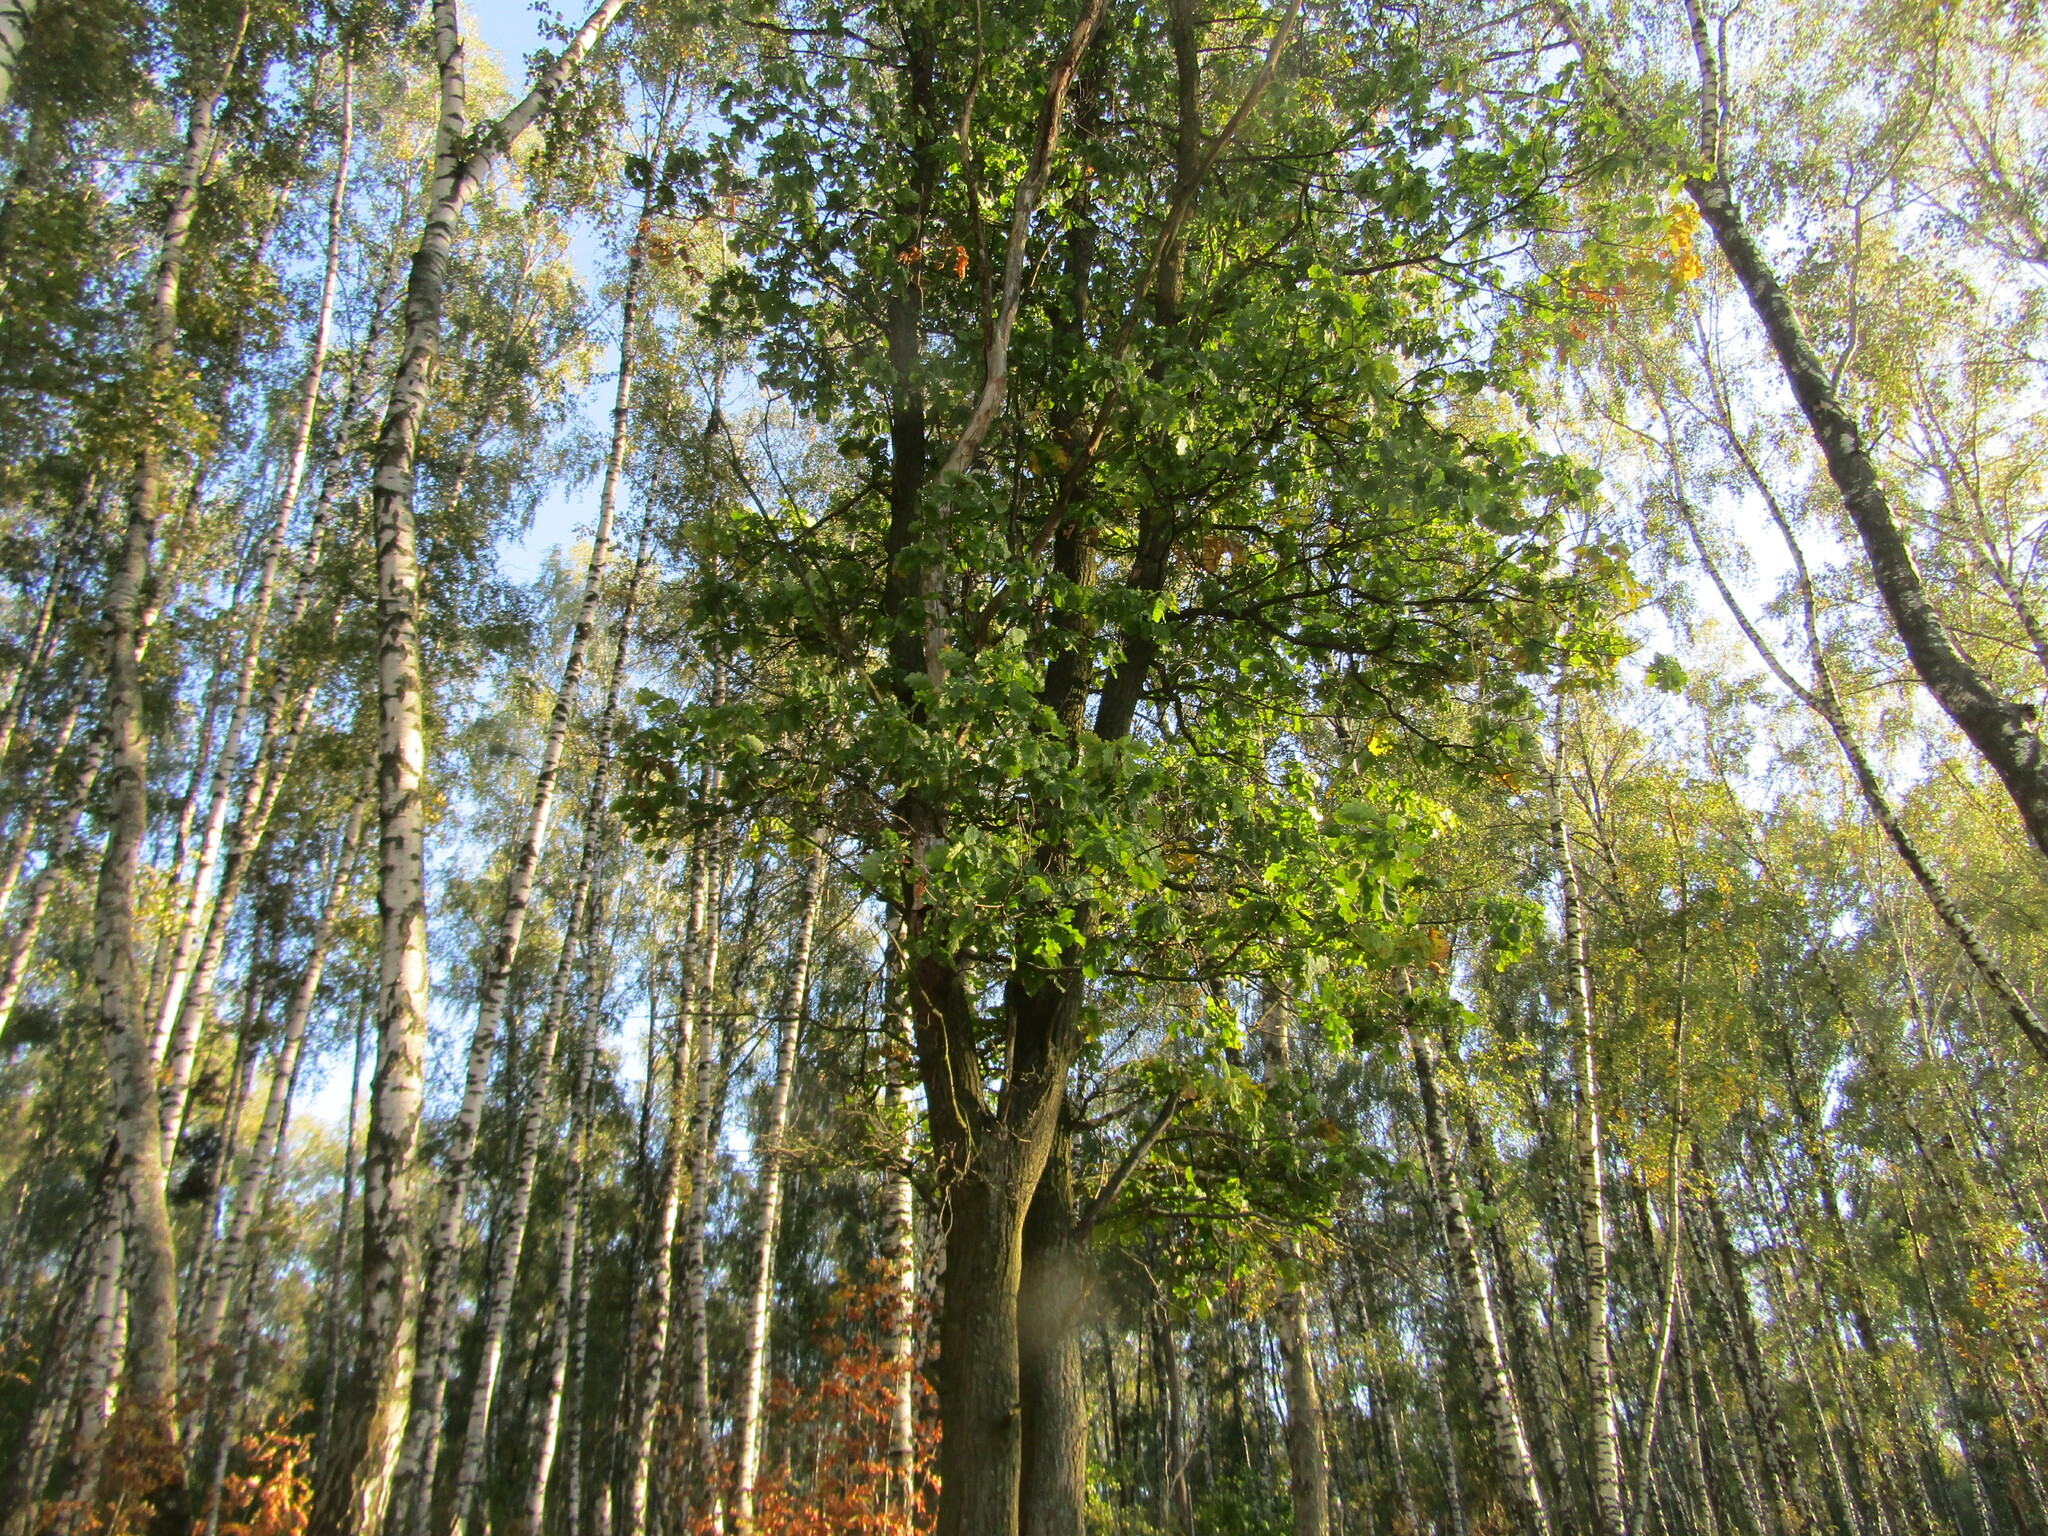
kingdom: Plantae
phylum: Tracheophyta
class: Magnoliopsida
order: Fagales
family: Fagaceae
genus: Quercus
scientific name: Quercus robur
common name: Pedunculate oak
